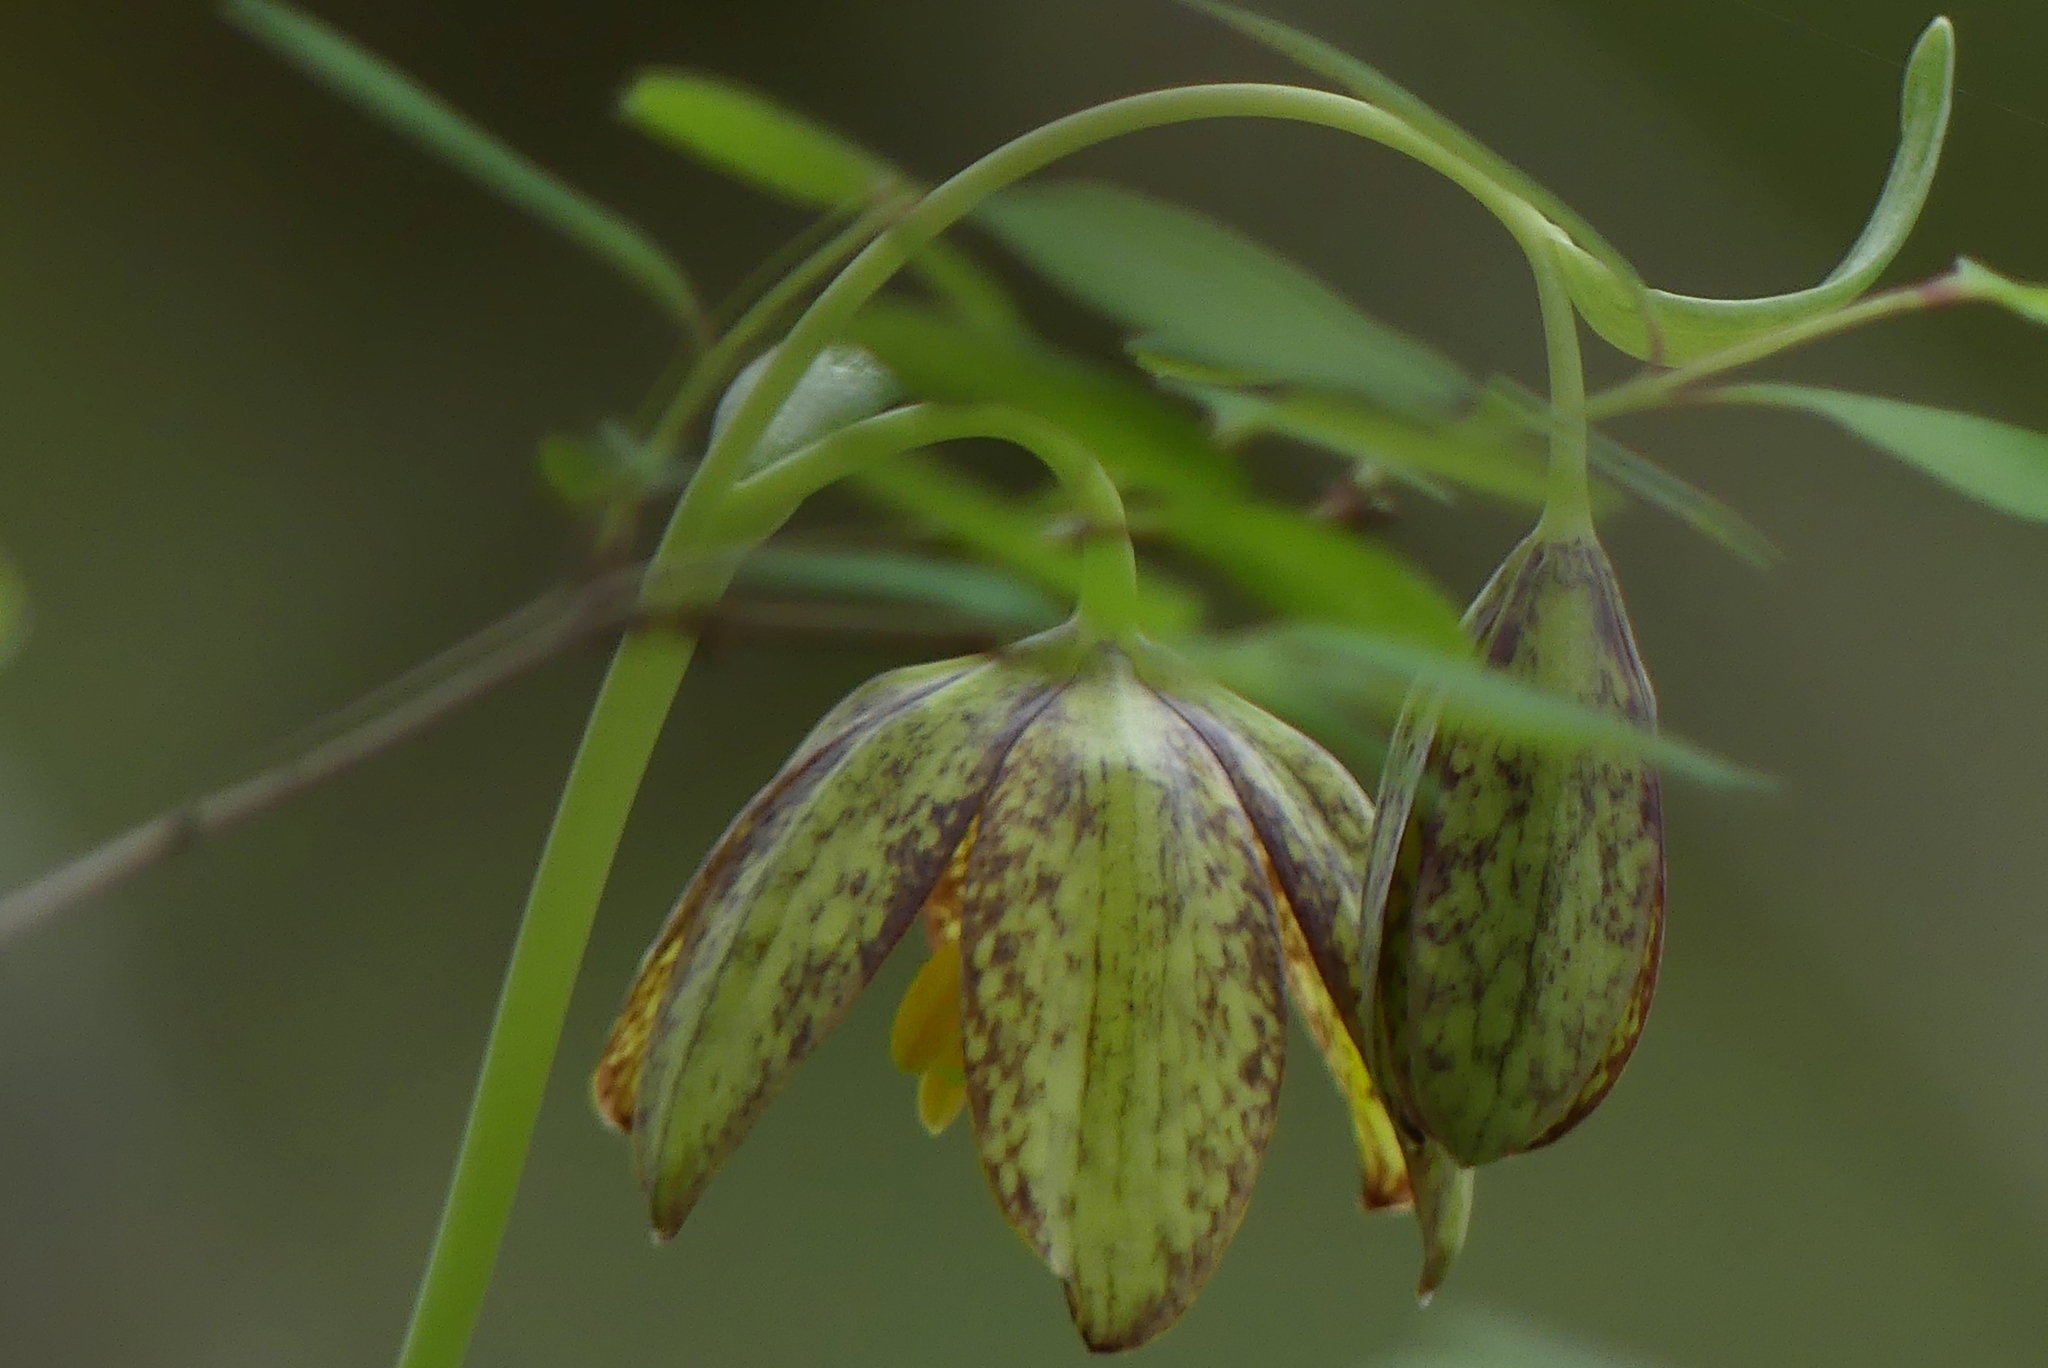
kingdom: Plantae
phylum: Tracheophyta
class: Liliopsida
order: Liliales
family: Liliaceae
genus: Fritillaria
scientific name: Fritillaria affinis
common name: Ojai fritillary
